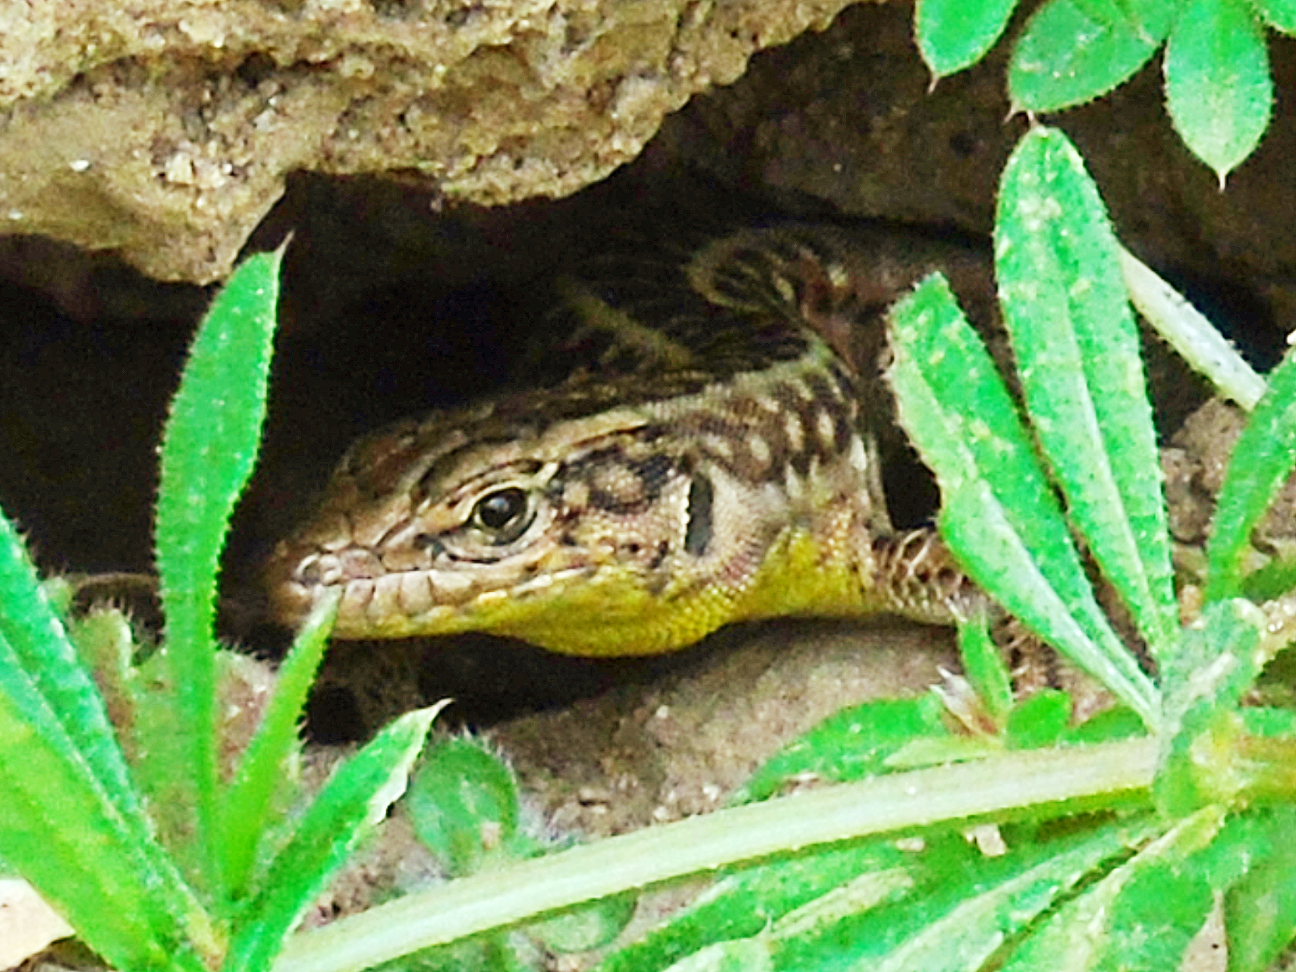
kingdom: Animalia
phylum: Chordata
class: Squamata
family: Lacertidae
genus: Apathya
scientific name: Apathya cappadocica
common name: Anatolian lizard
